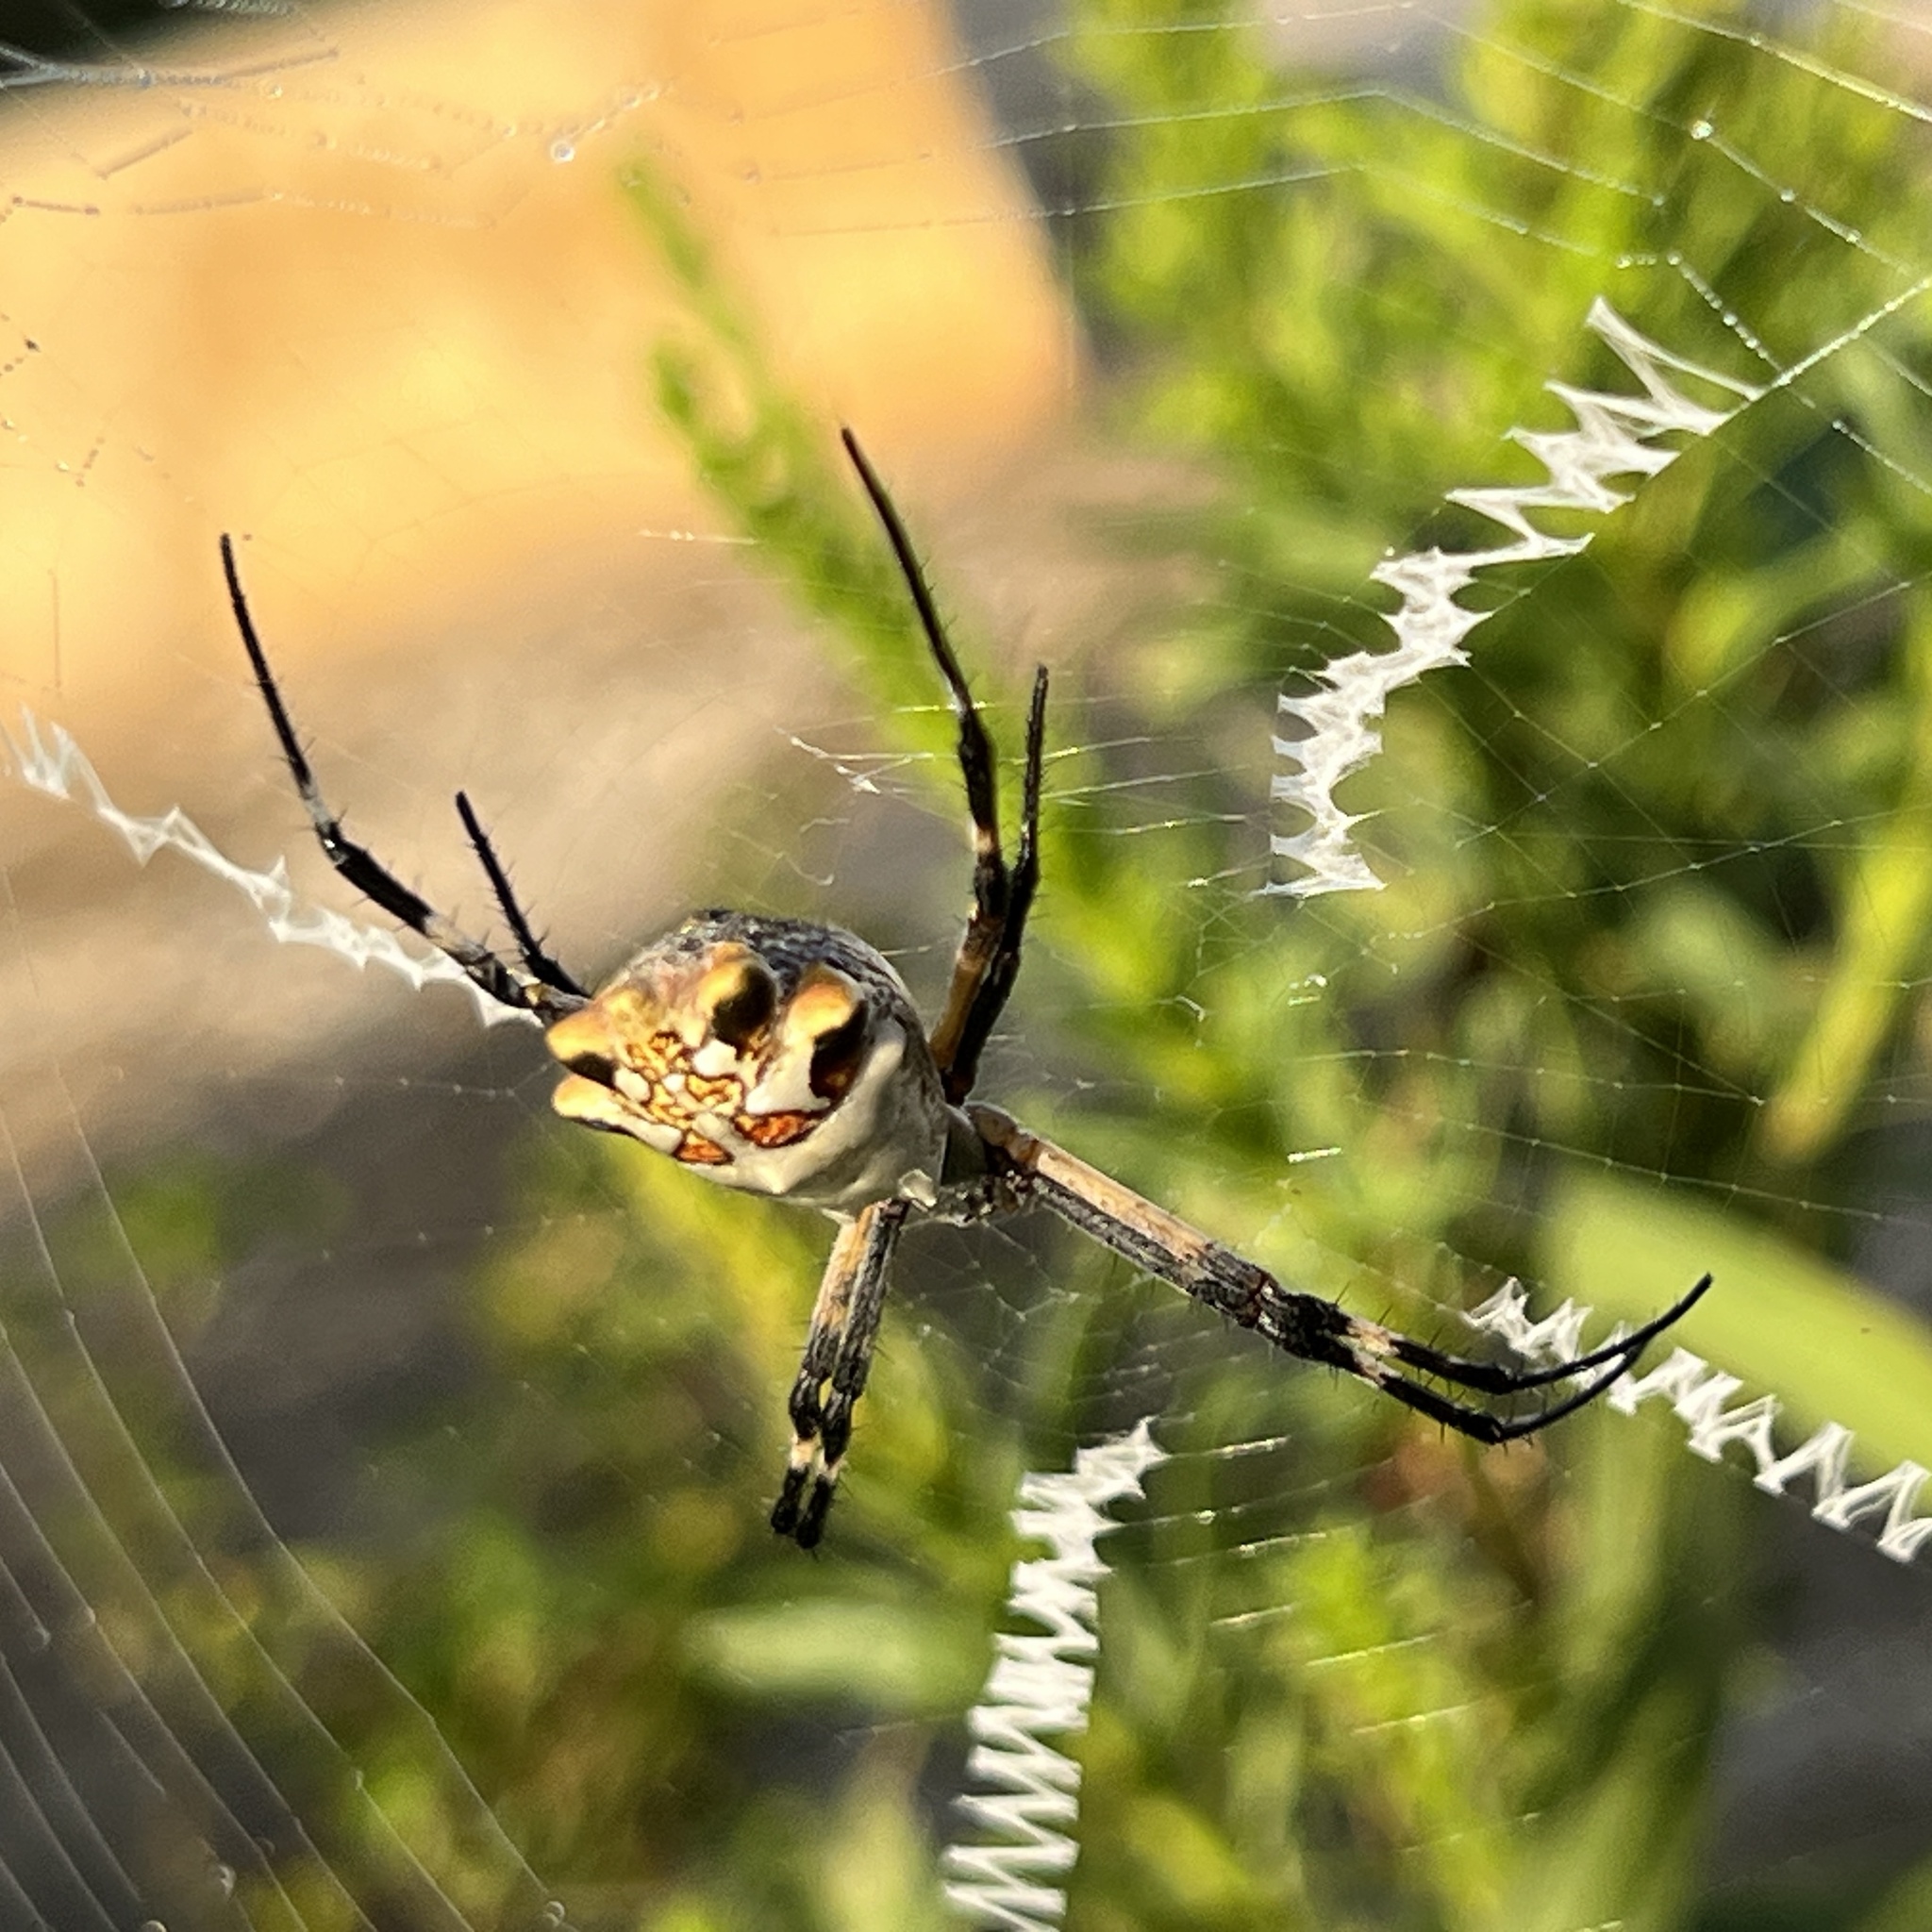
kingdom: Animalia
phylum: Arthropoda
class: Arachnida
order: Araneae
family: Araneidae
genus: Argiope
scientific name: Argiope argentata
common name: Orb weavers
